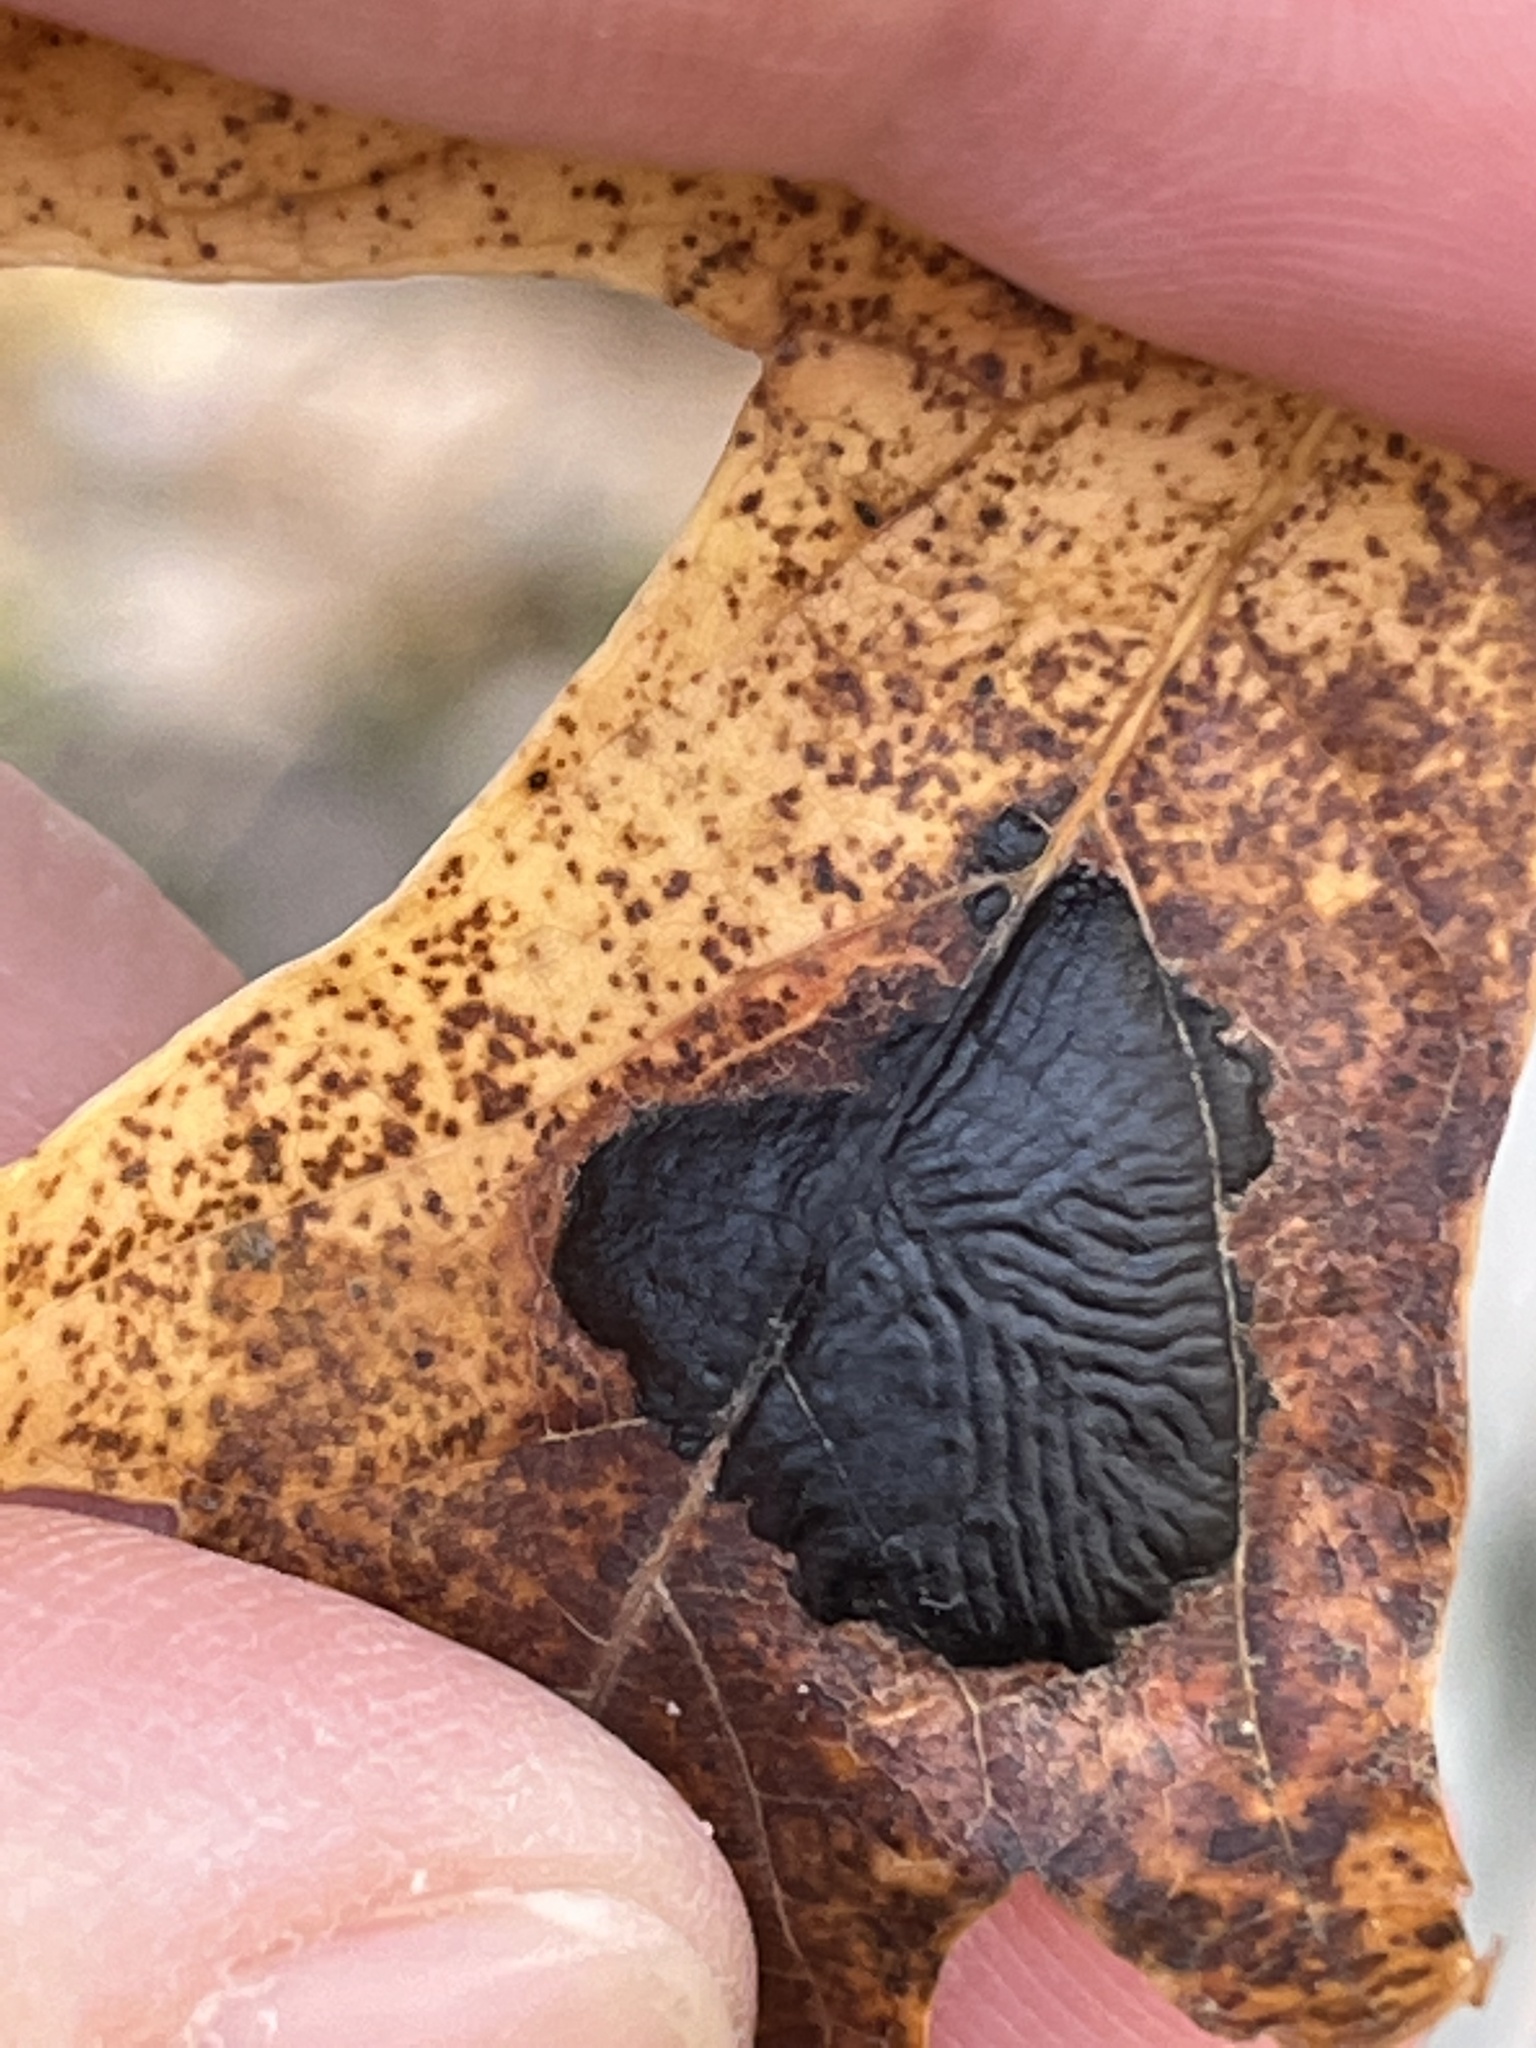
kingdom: Fungi
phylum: Ascomycota
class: Leotiomycetes
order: Rhytismatales
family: Rhytismataceae
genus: Rhytisma
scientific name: Rhytisma americanum
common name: American tar spot
